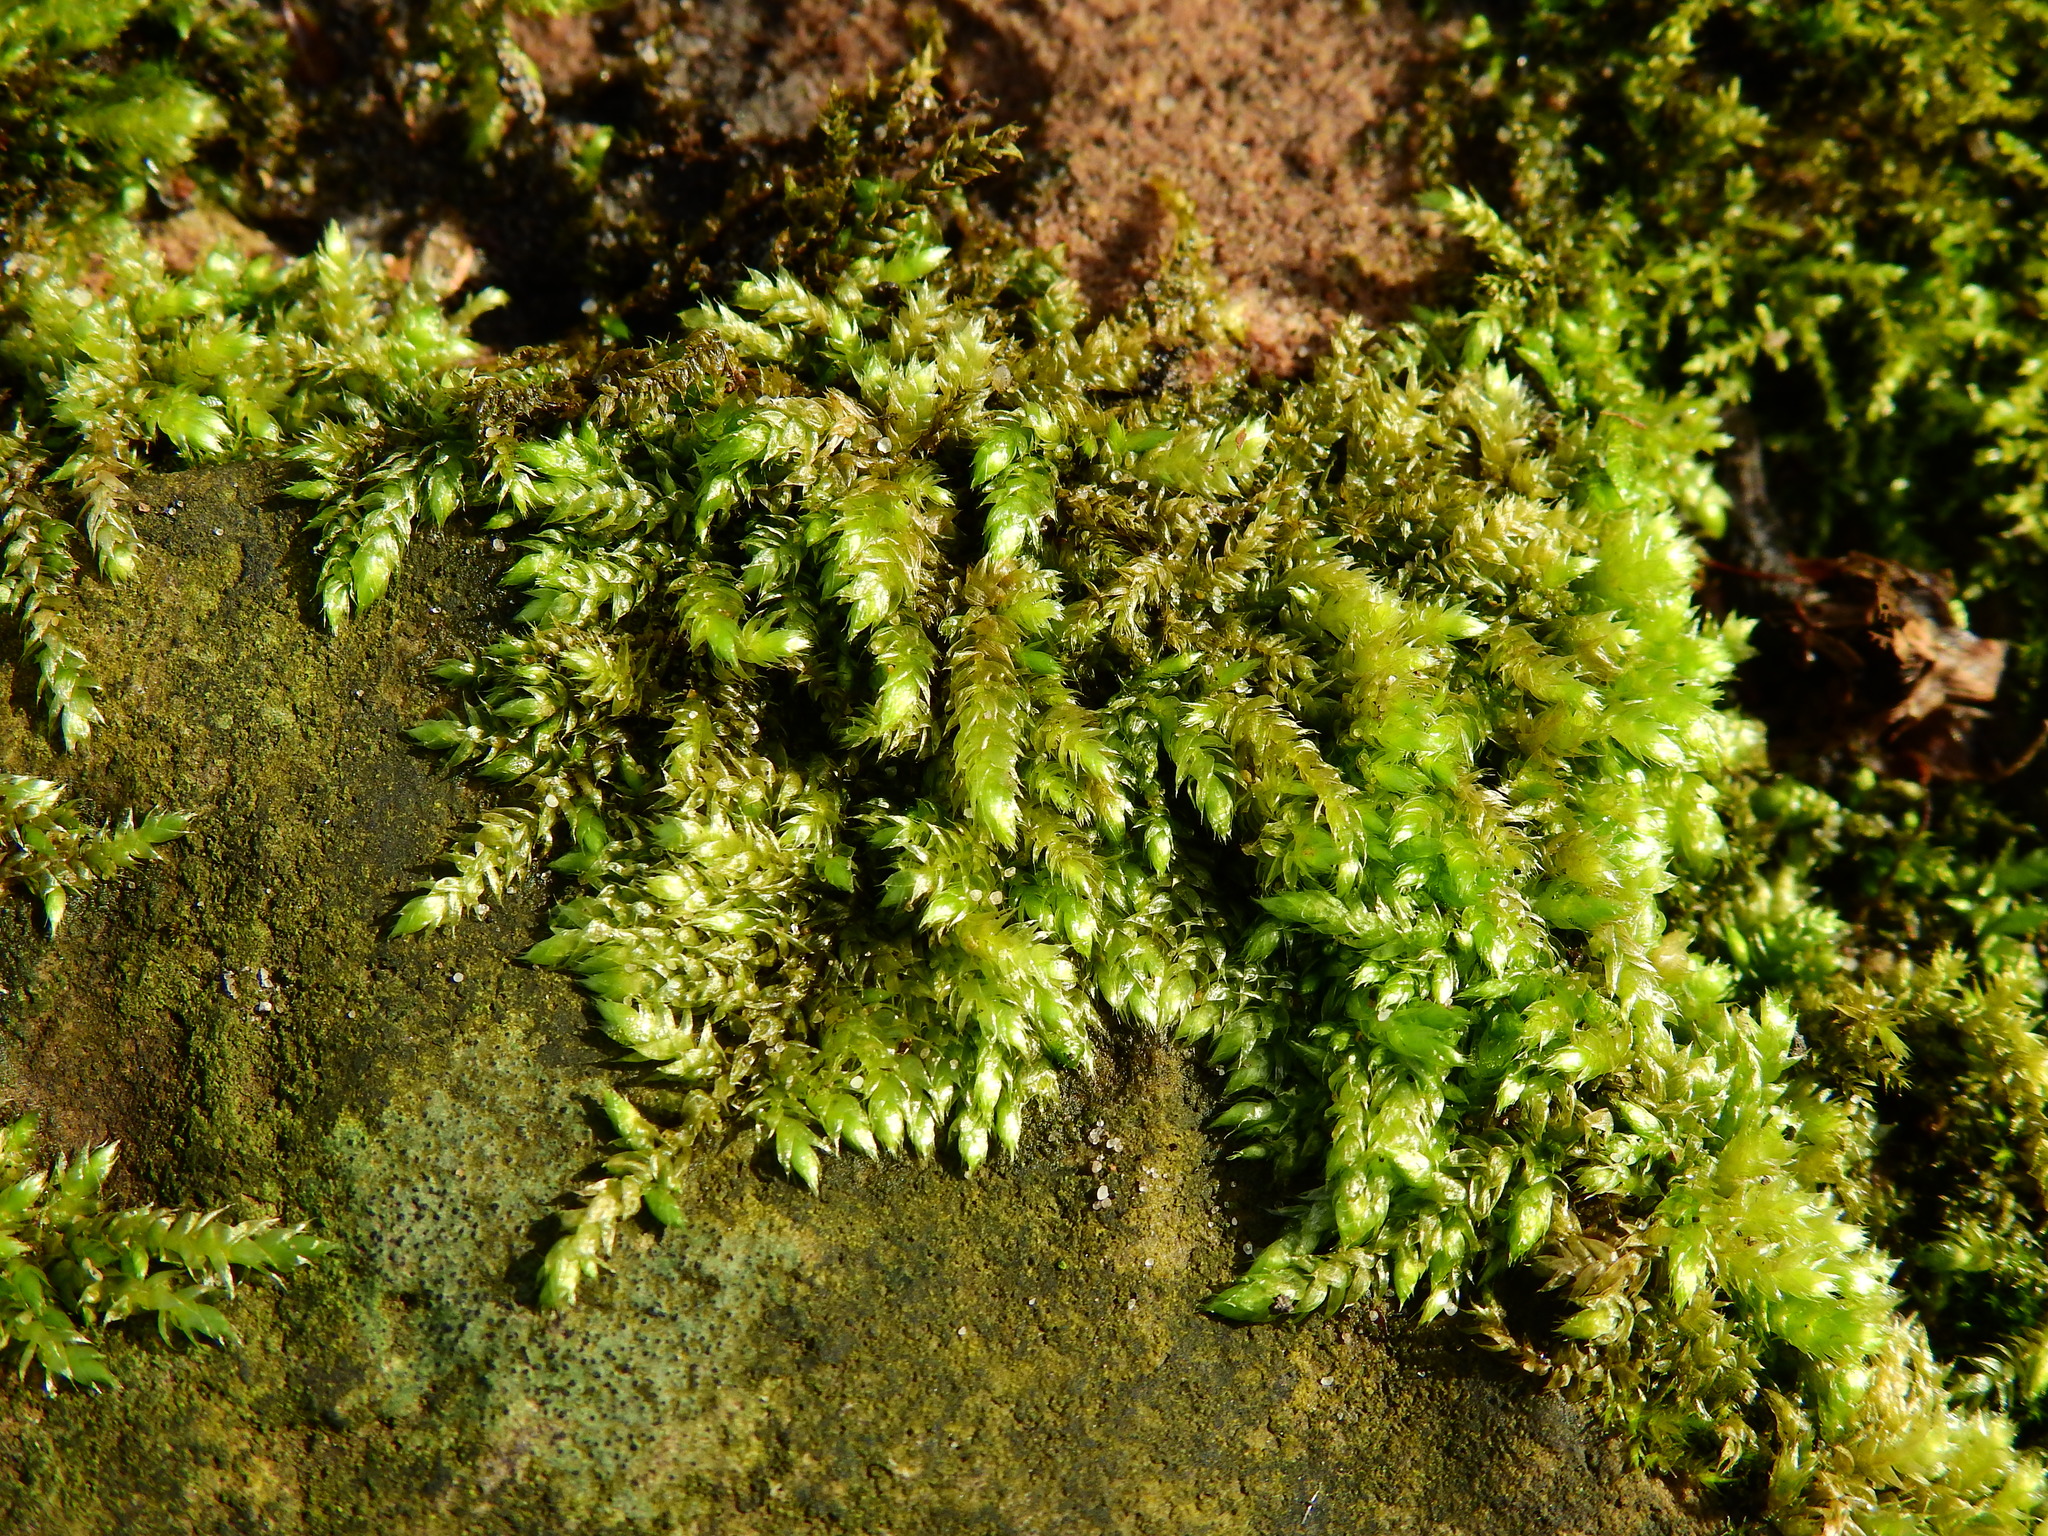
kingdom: Plantae
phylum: Bryophyta
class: Bryopsida
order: Hypnales
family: Brachytheciaceae
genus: Brachythecium
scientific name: Brachythecium rutabulum
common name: Rough-stalked feather-moss
